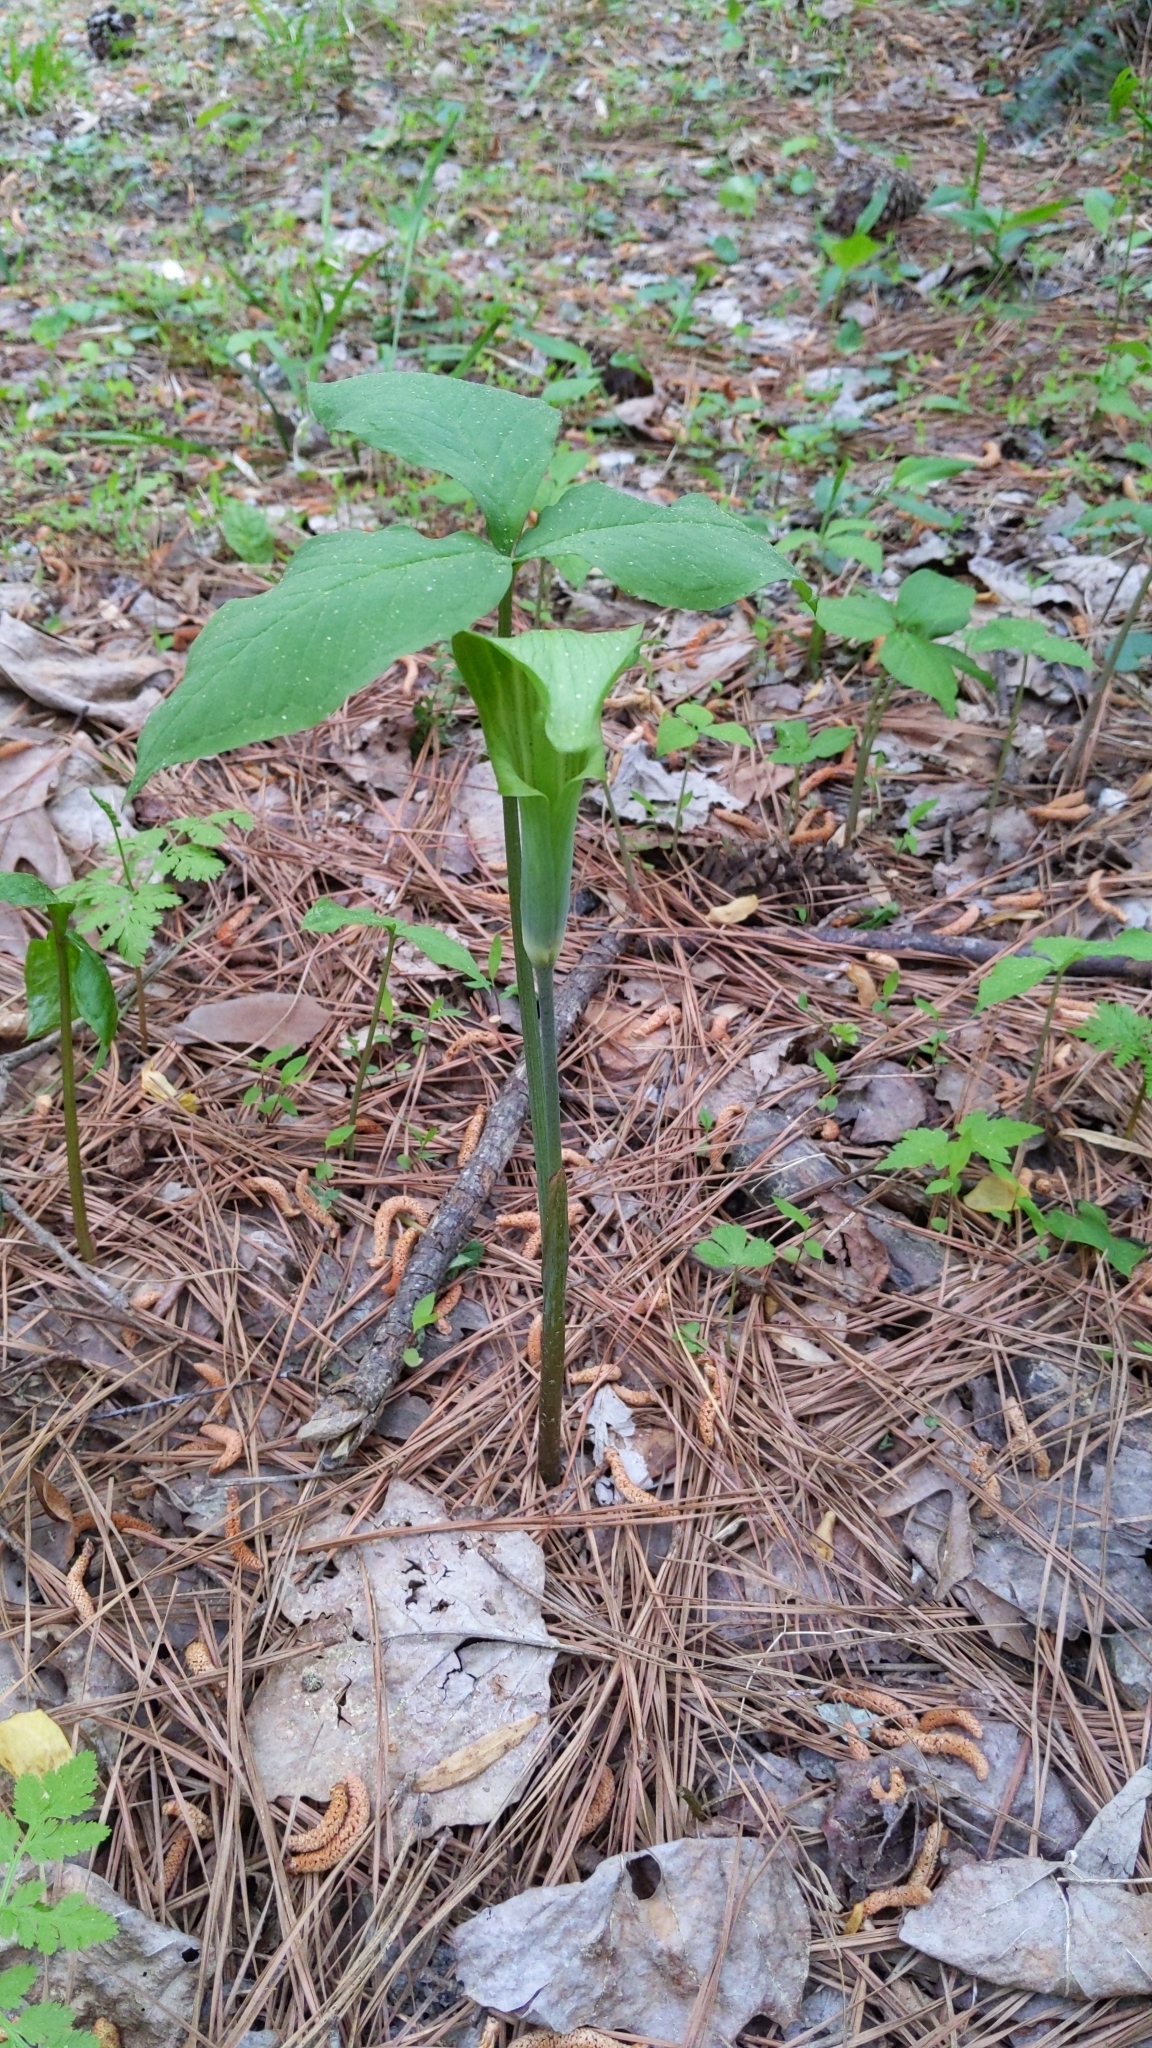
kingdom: Plantae
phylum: Tracheophyta
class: Liliopsida
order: Alismatales
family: Araceae
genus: Arisaema
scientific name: Arisaema triphyllum
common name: Jack-in-the-pulpit
